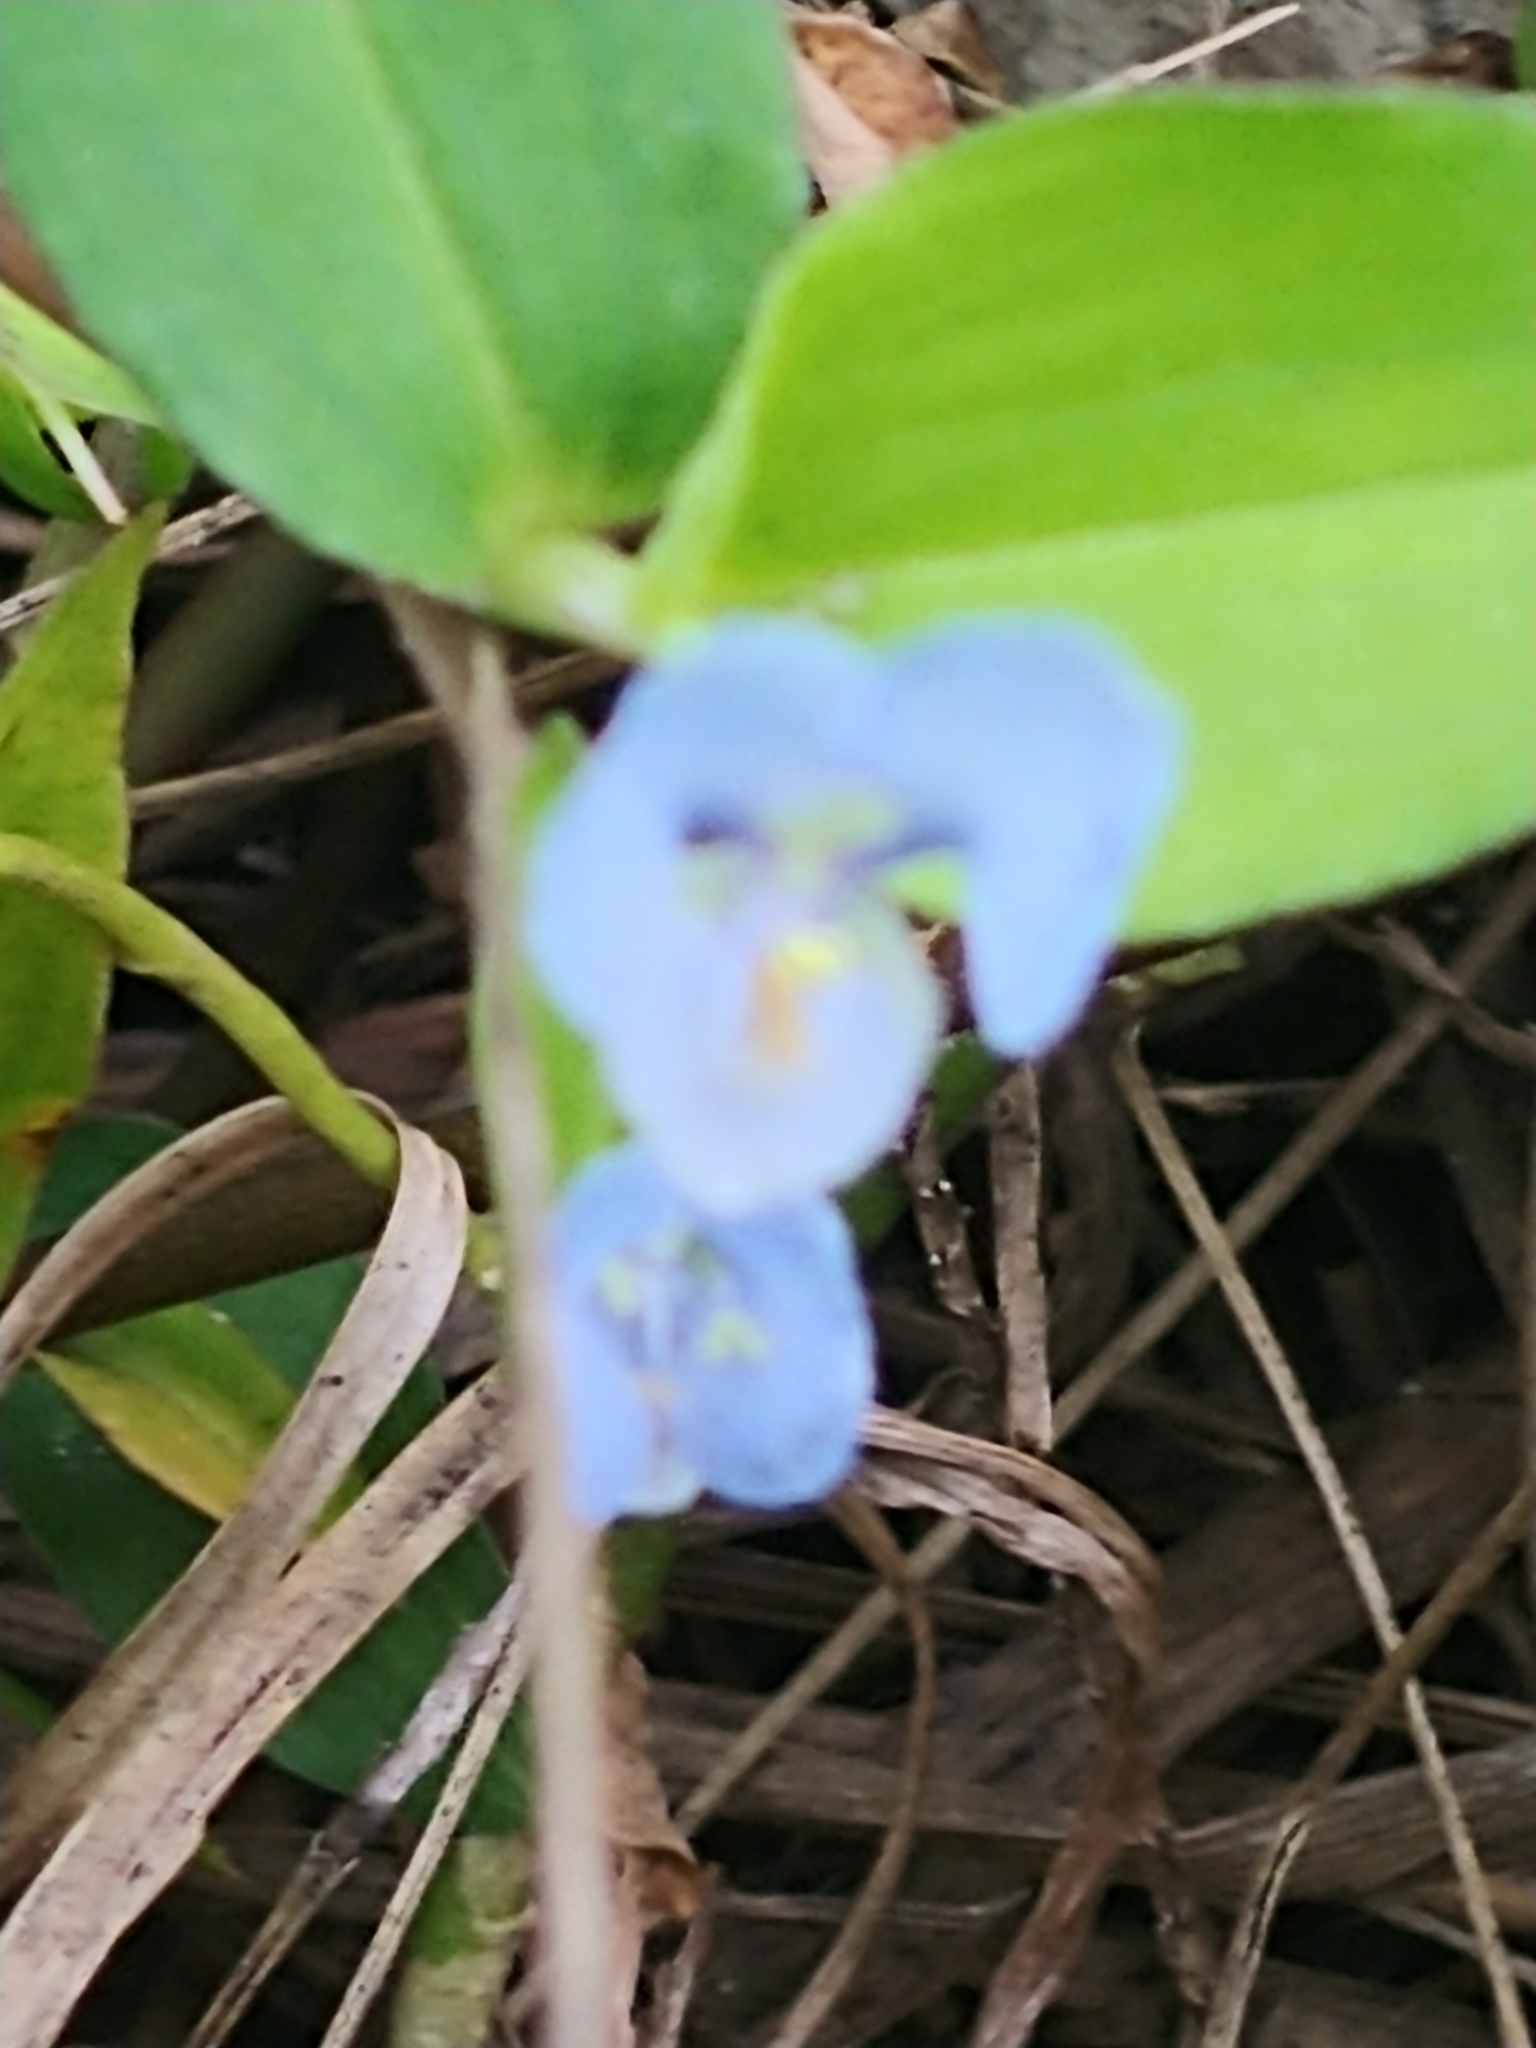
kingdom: Plantae
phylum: Tracheophyta
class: Liliopsida
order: Commelinales
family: Commelinaceae
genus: Commelina
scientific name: Commelina diffusa
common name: Climbing dayflower
